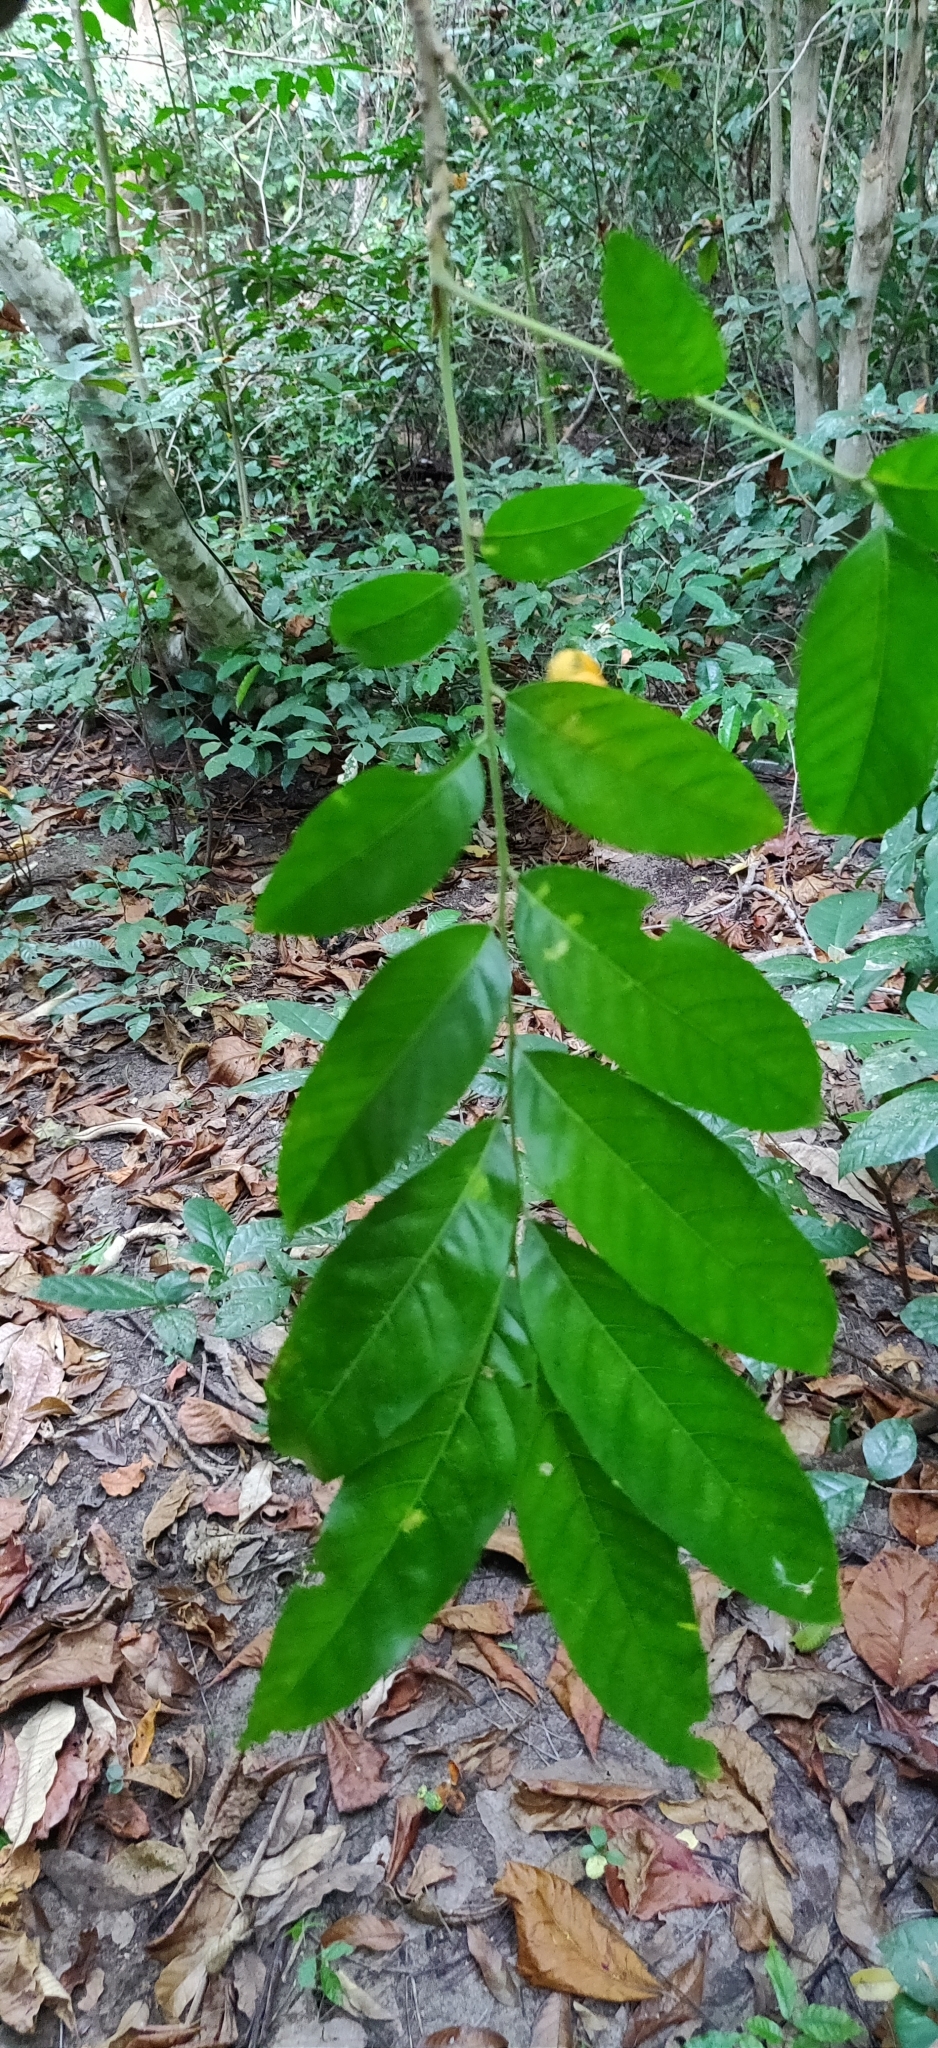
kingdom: Plantae
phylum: Tracheophyta
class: Magnoliopsida
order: Sapindales
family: Sapindaceae
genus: Harpullia
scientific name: Harpullia cupanioides
